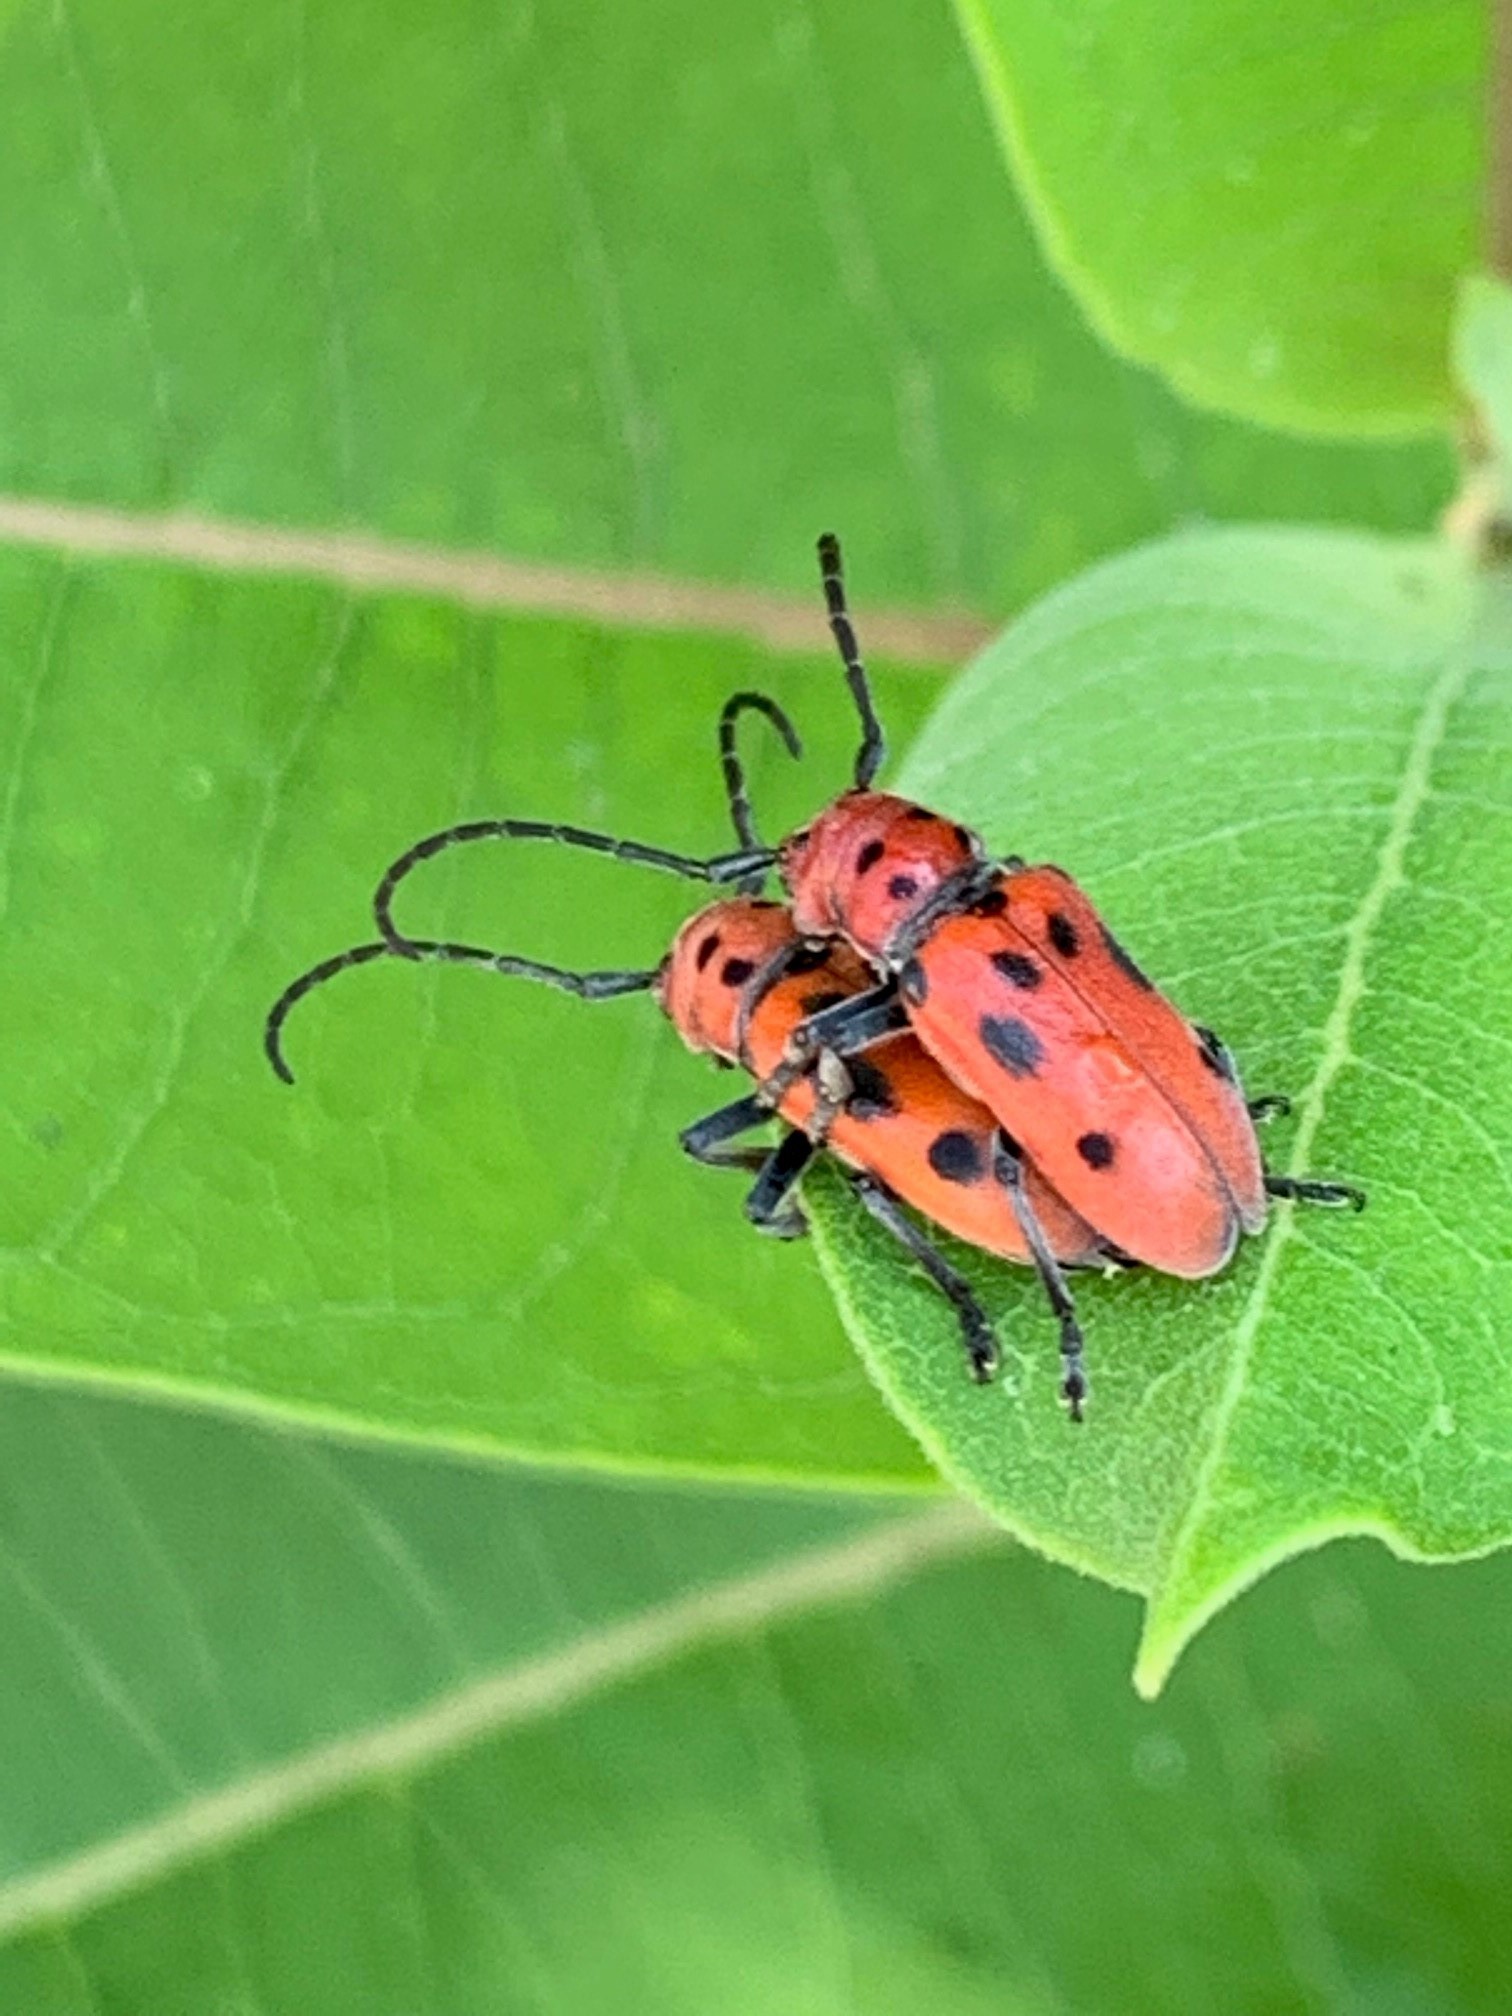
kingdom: Animalia
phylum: Arthropoda
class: Insecta
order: Coleoptera
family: Cerambycidae
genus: Tetraopes
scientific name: Tetraopes tetrophthalmus
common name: Red milkweed beetle
